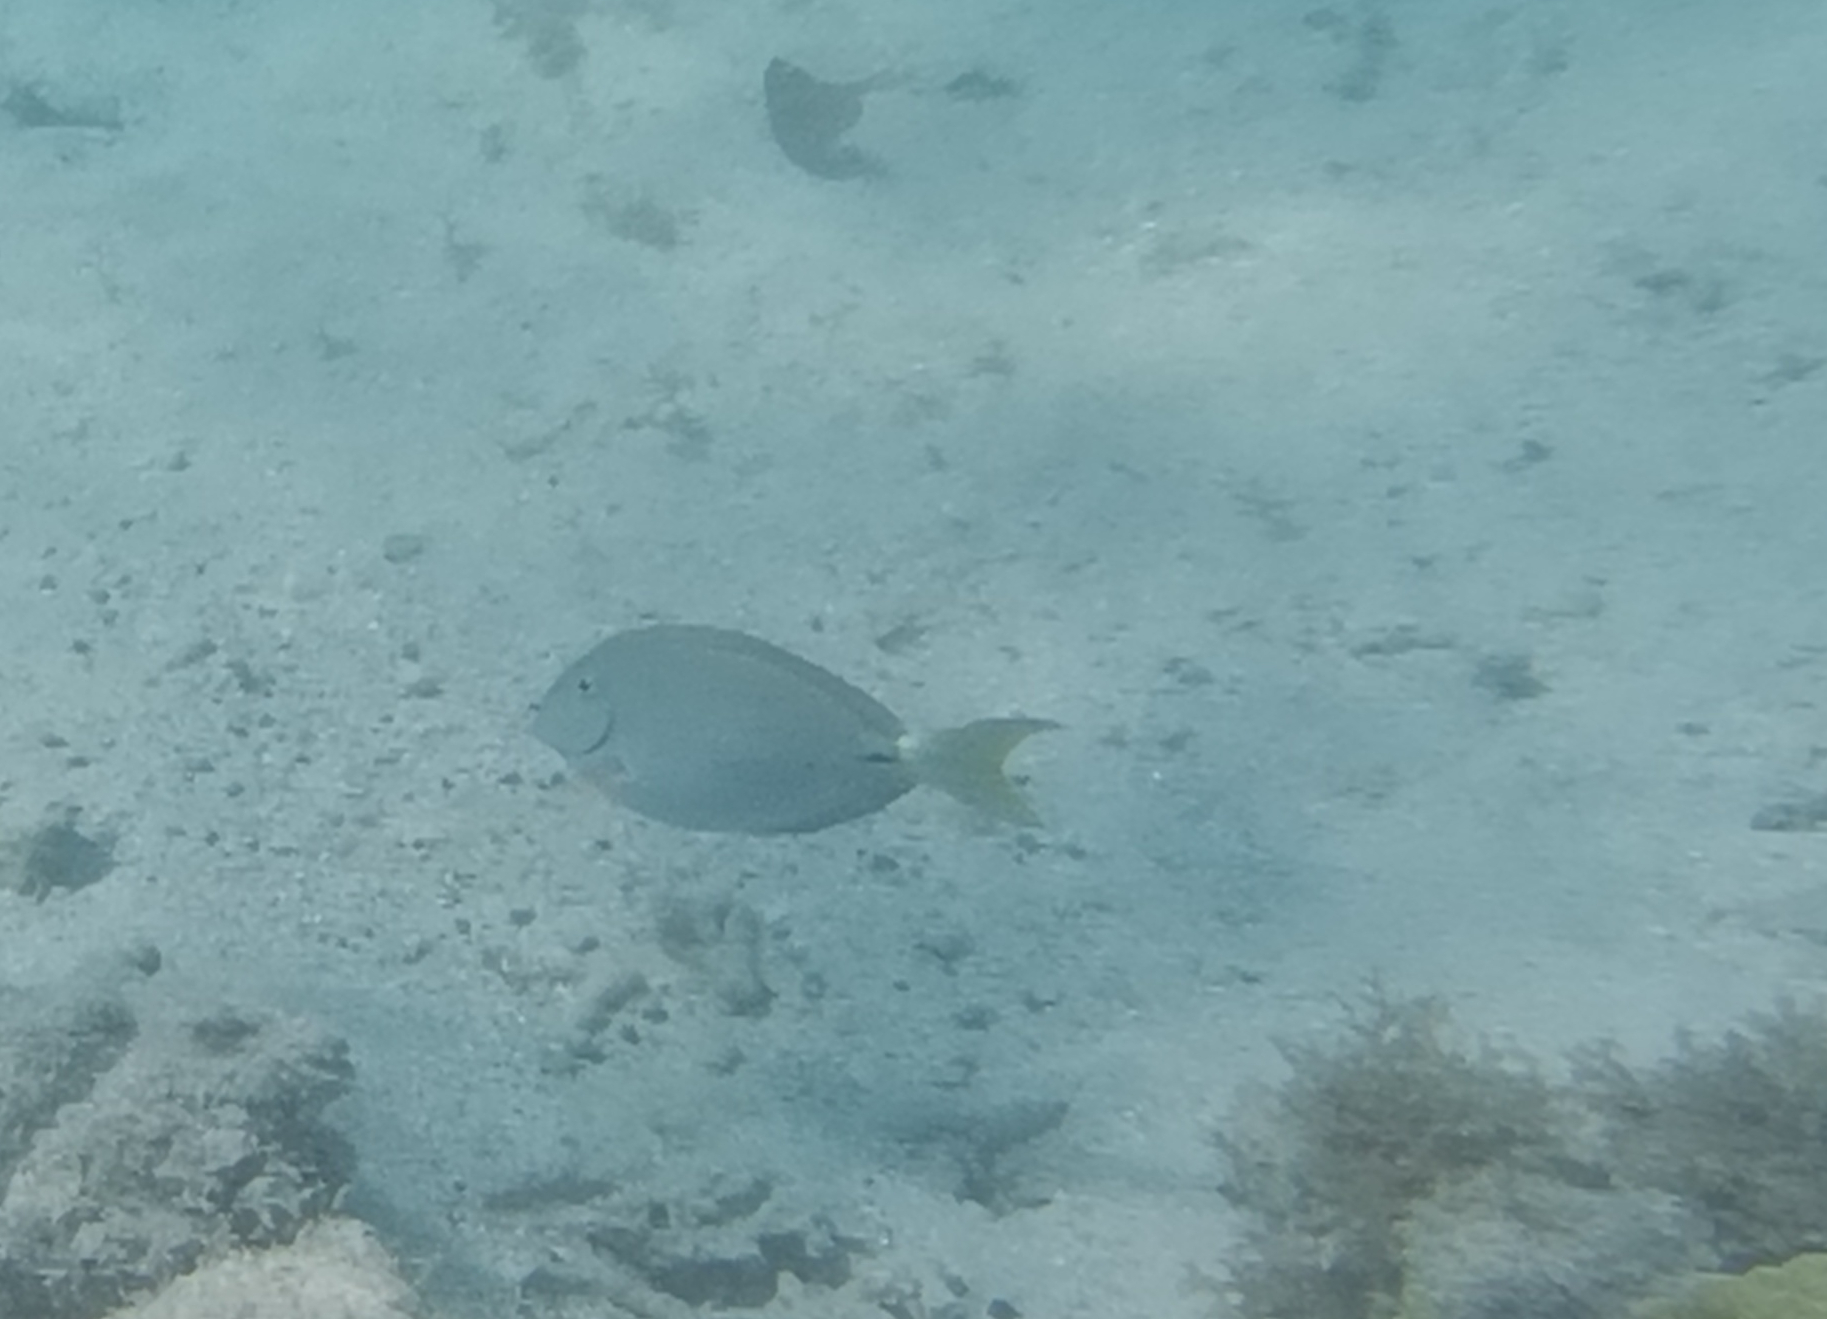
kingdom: Animalia
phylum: Chordata
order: Perciformes
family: Acanthuridae
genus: Acanthurus
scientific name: Acanthurus bahianus
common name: Ocean surgeon
